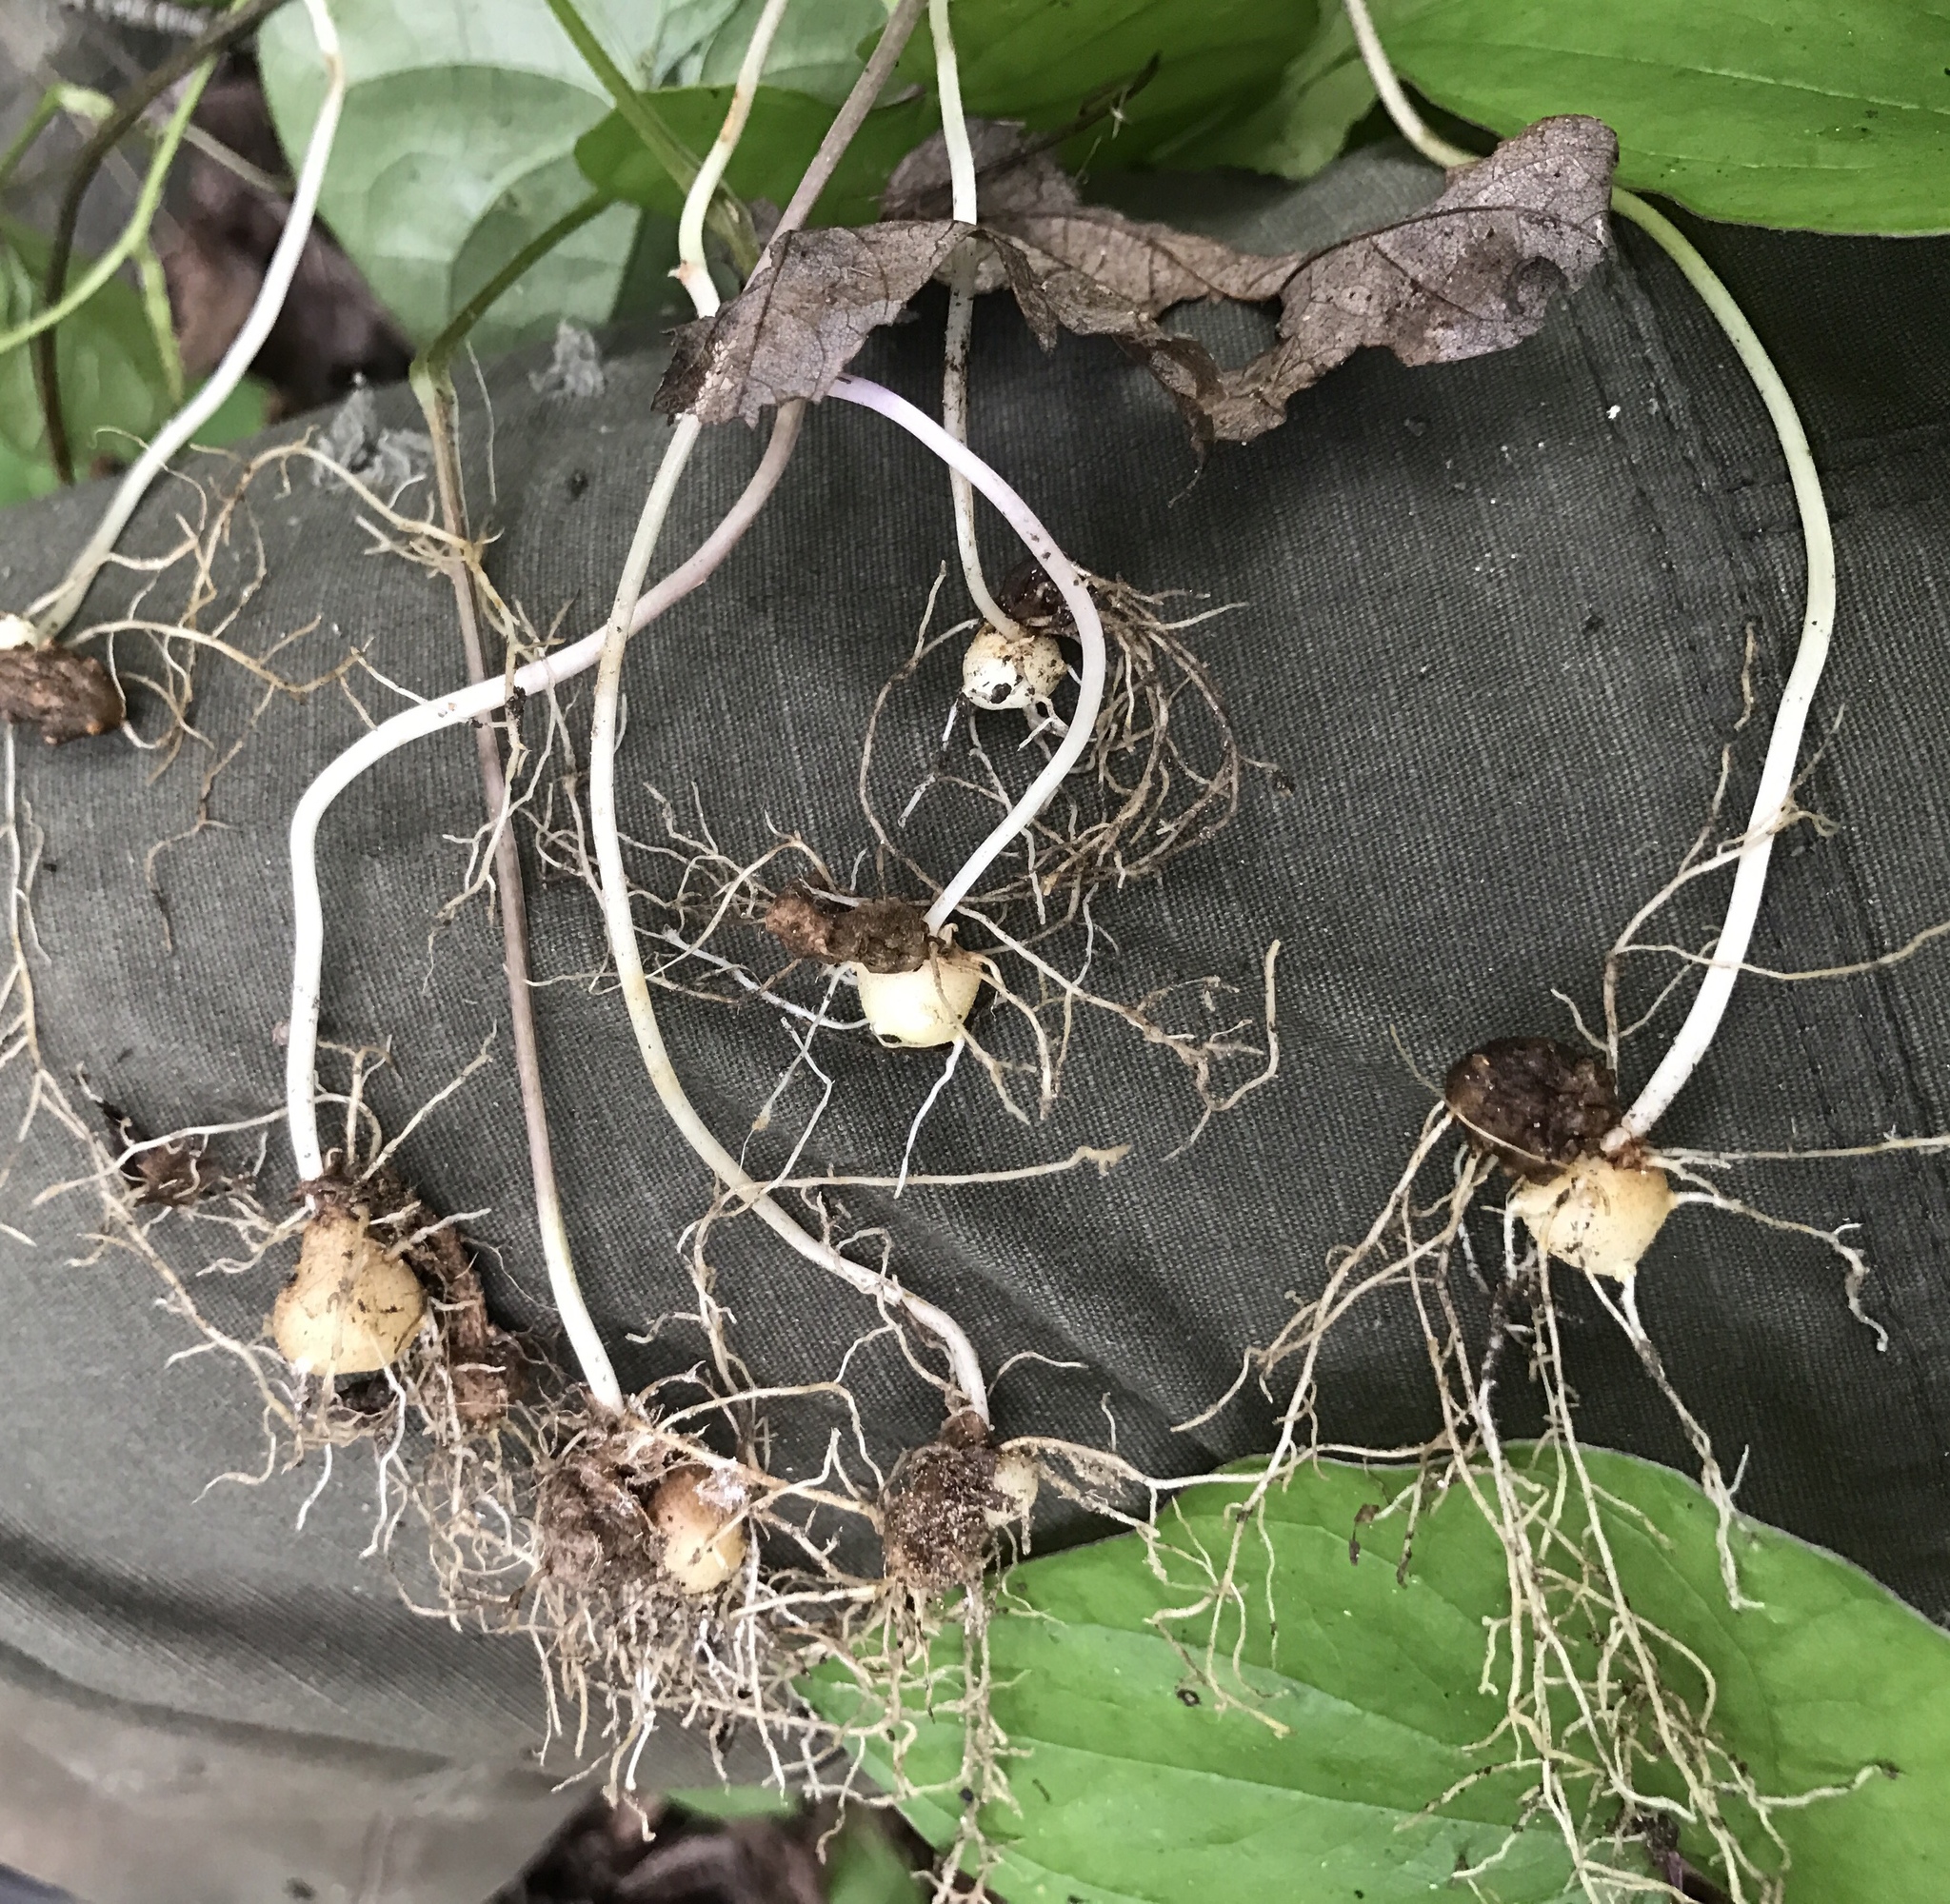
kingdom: Plantae
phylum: Tracheophyta
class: Liliopsida
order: Dioscoreales
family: Dioscoreaceae
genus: Dioscorea
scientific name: Dioscorea polystachya
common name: Chinese yam
